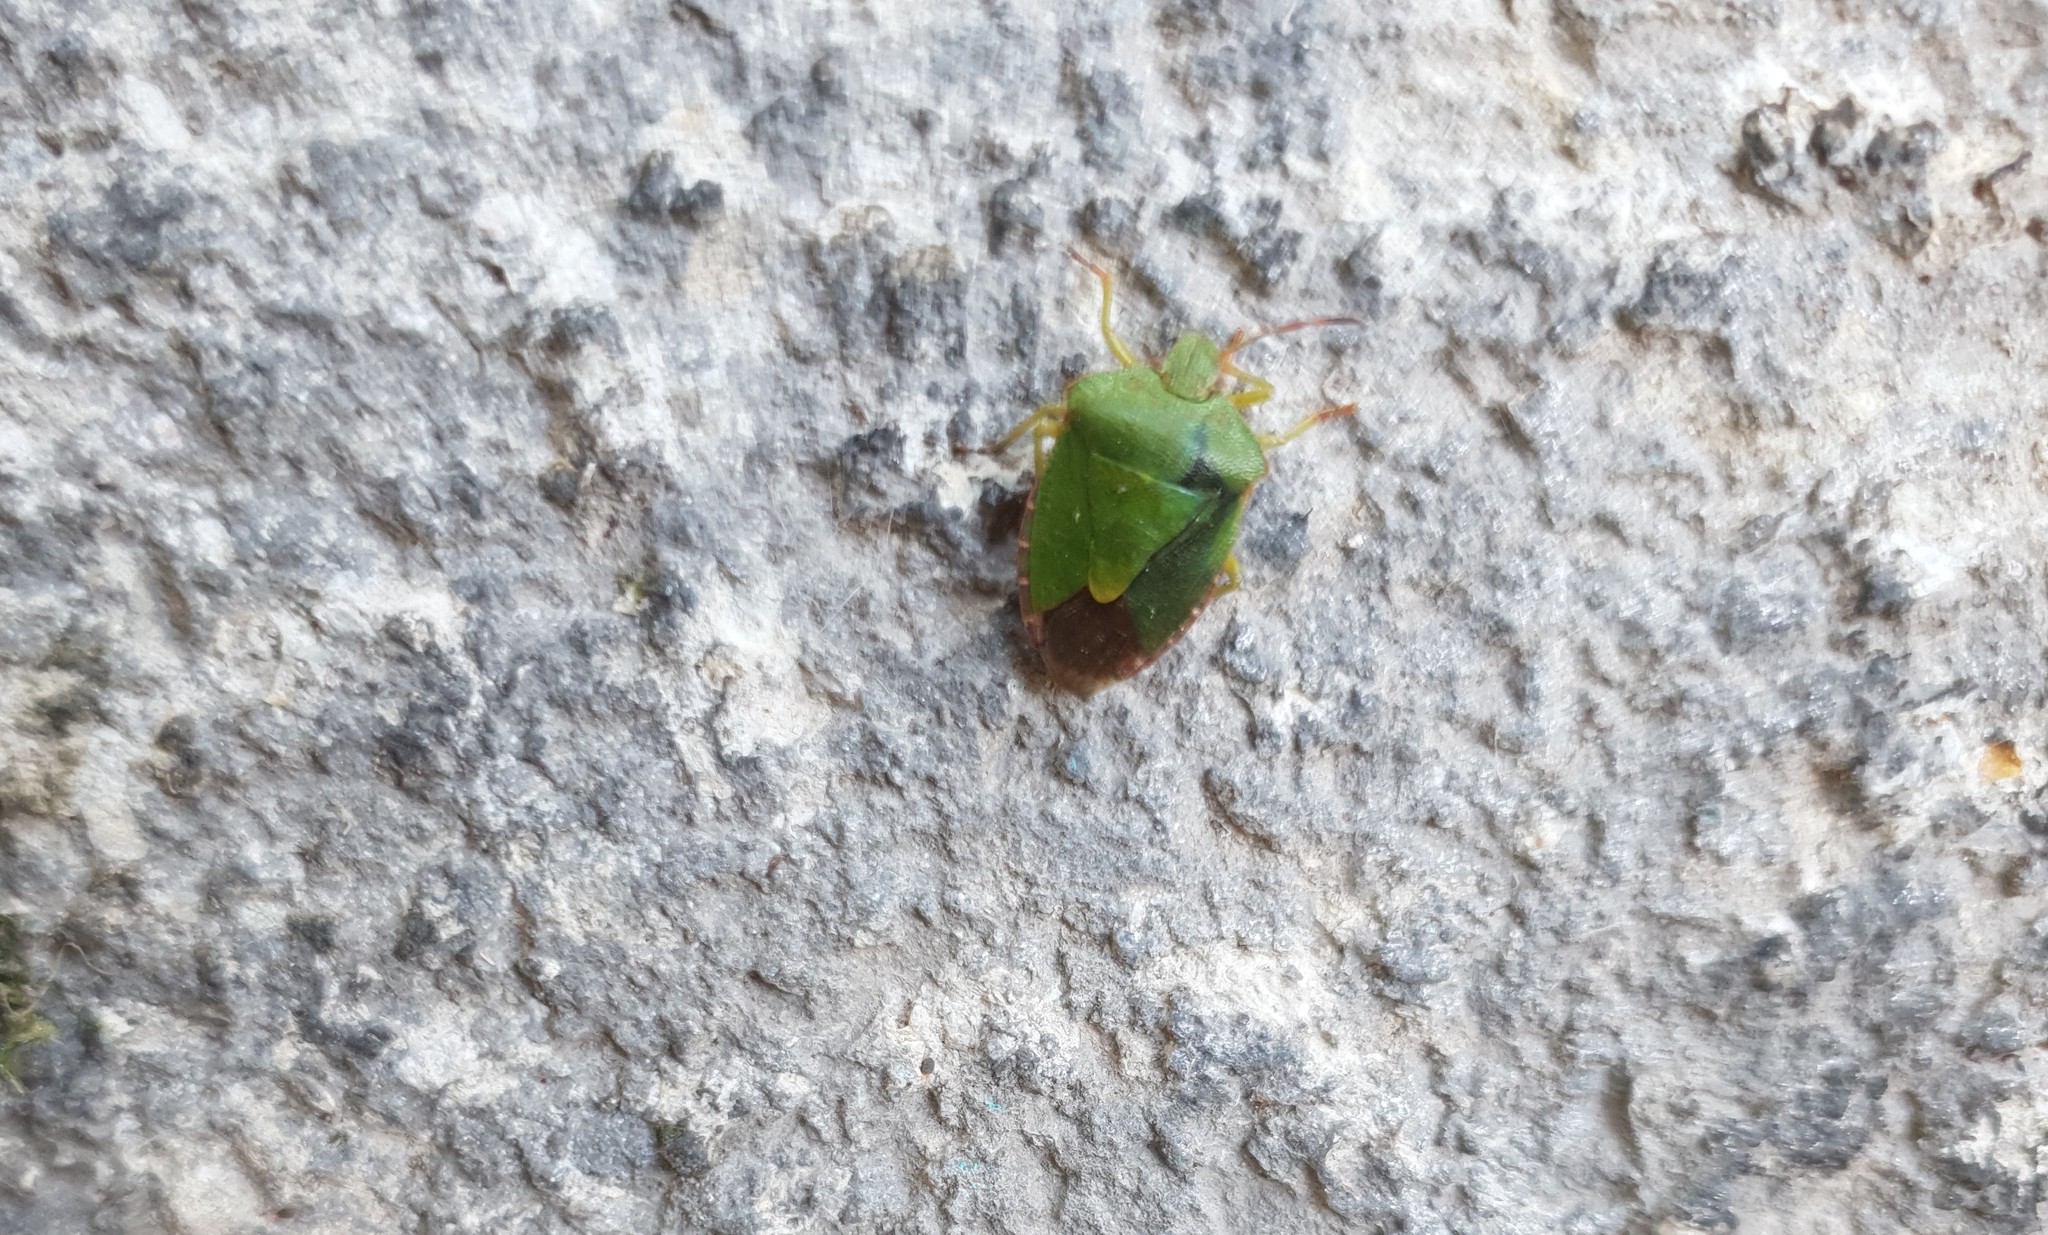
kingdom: Animalia
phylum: Arthropoda
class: Insecta
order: Hemiptera
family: Pentatomidae
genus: Palomena
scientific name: Palomena prasina
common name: Green shieldbug
